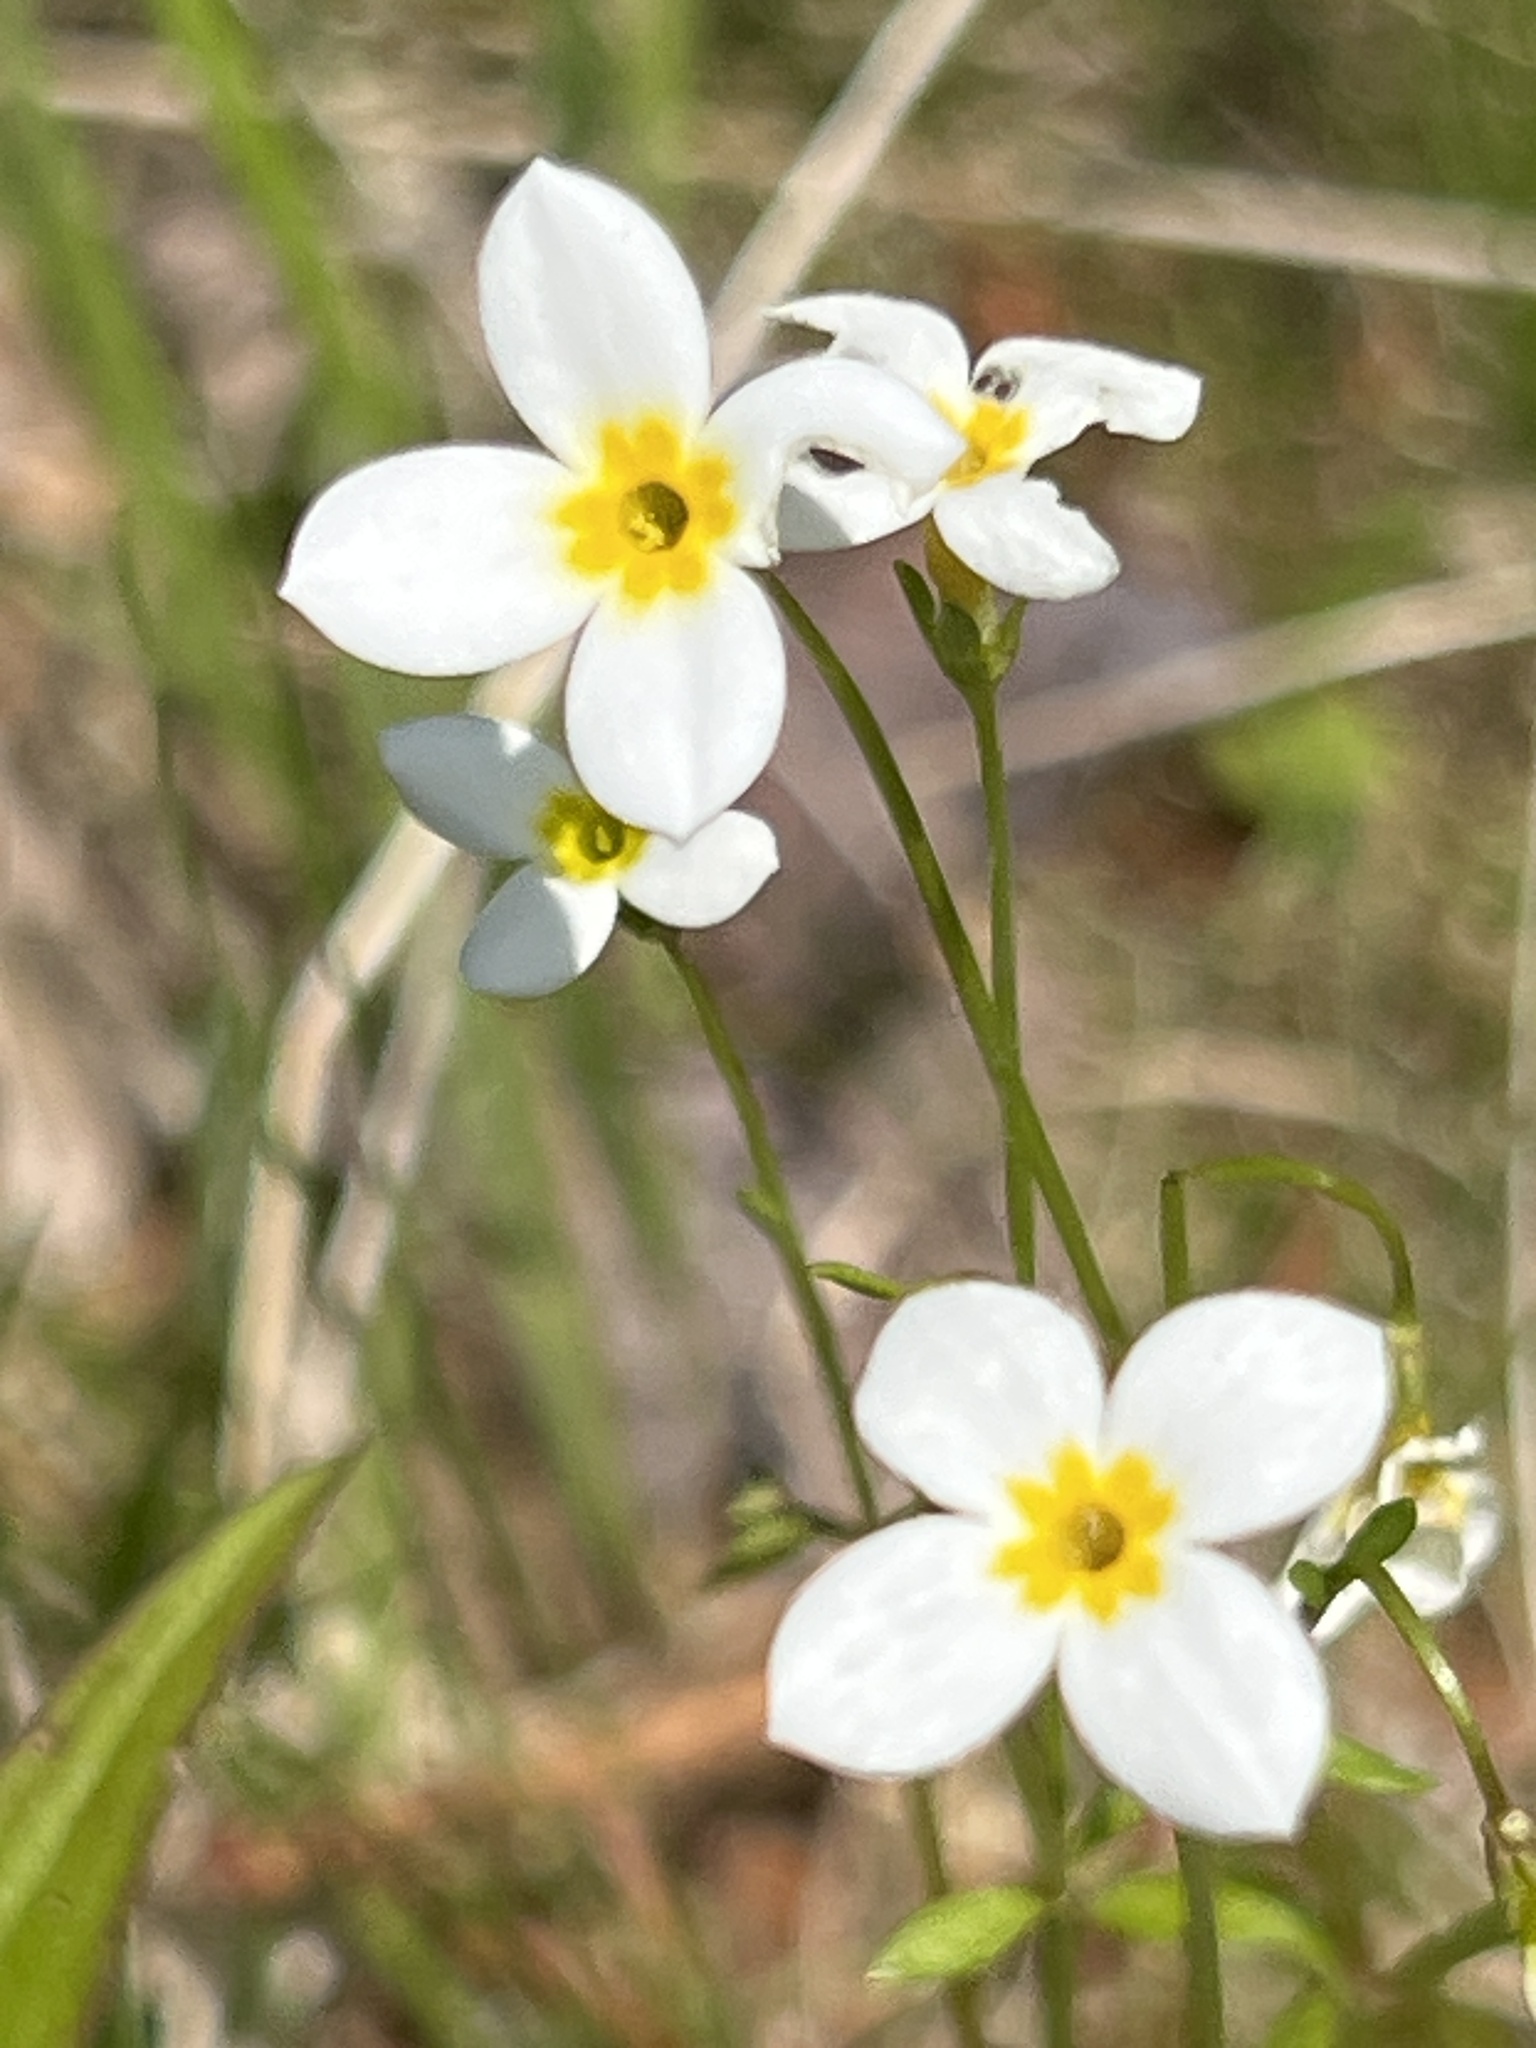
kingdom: Plantae
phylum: Tracheophyta
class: Magnoliopsida
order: Gentianales
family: Rubiaceae
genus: Houstonia
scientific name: Houstonia caerulea
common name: Bluets
